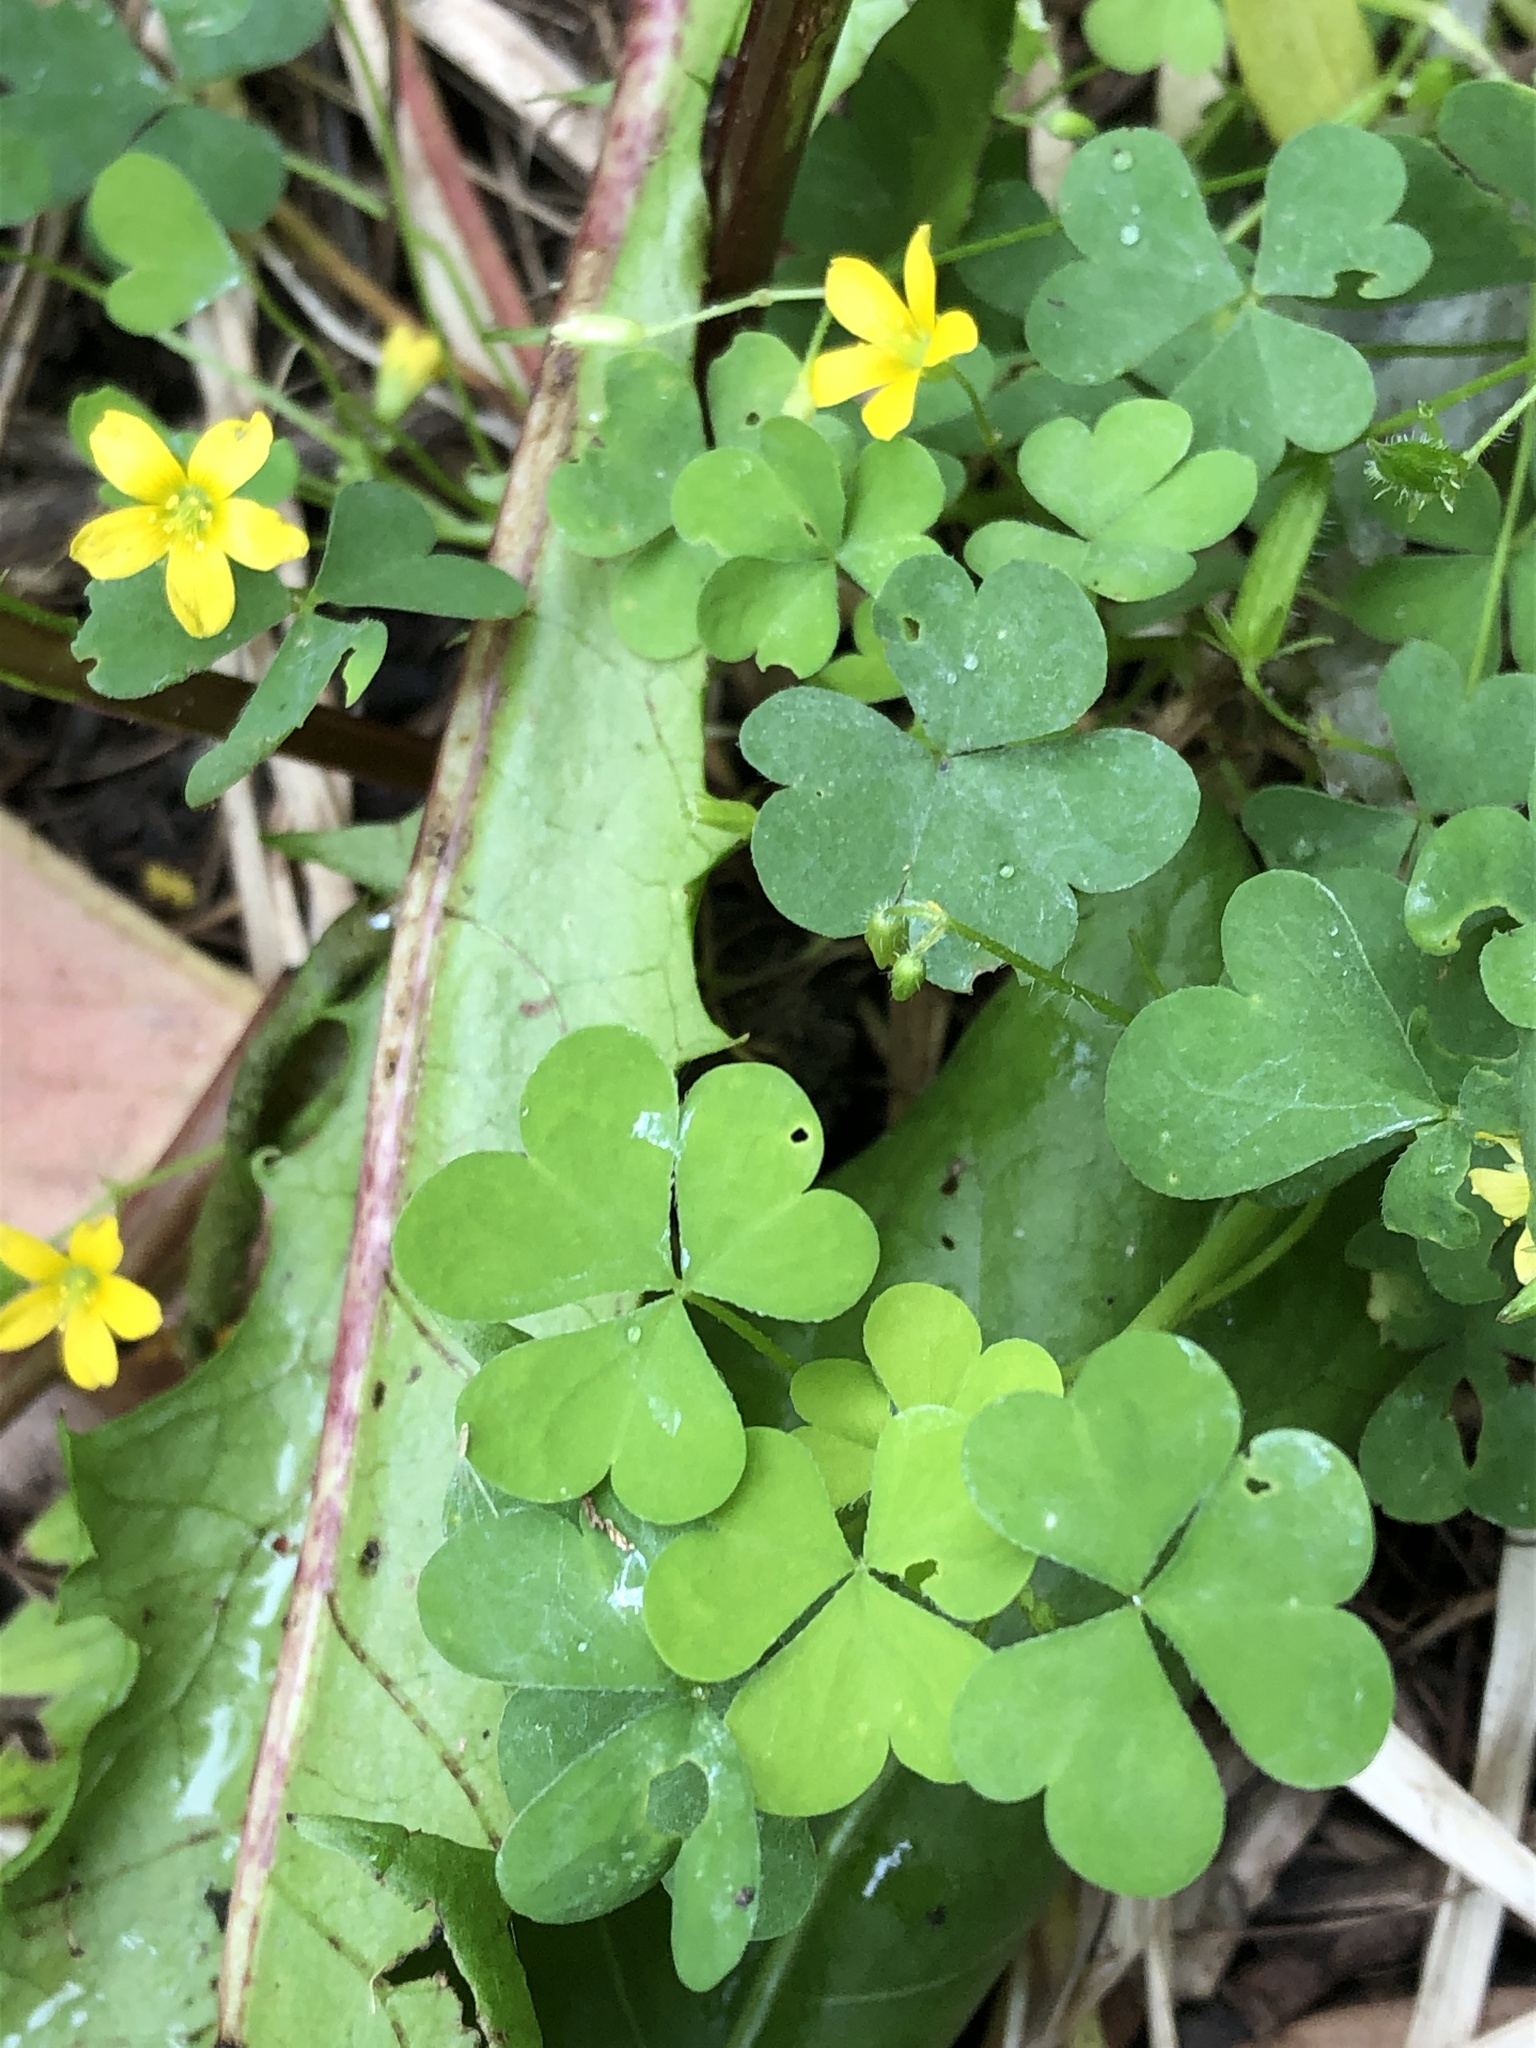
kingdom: Plantae
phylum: Tracheophyta
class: Magnoliopsida
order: Oxalidales
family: Oxalidaceae
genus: Oxalis
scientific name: Oxalis stricta
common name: Upright yellow-sorrel
